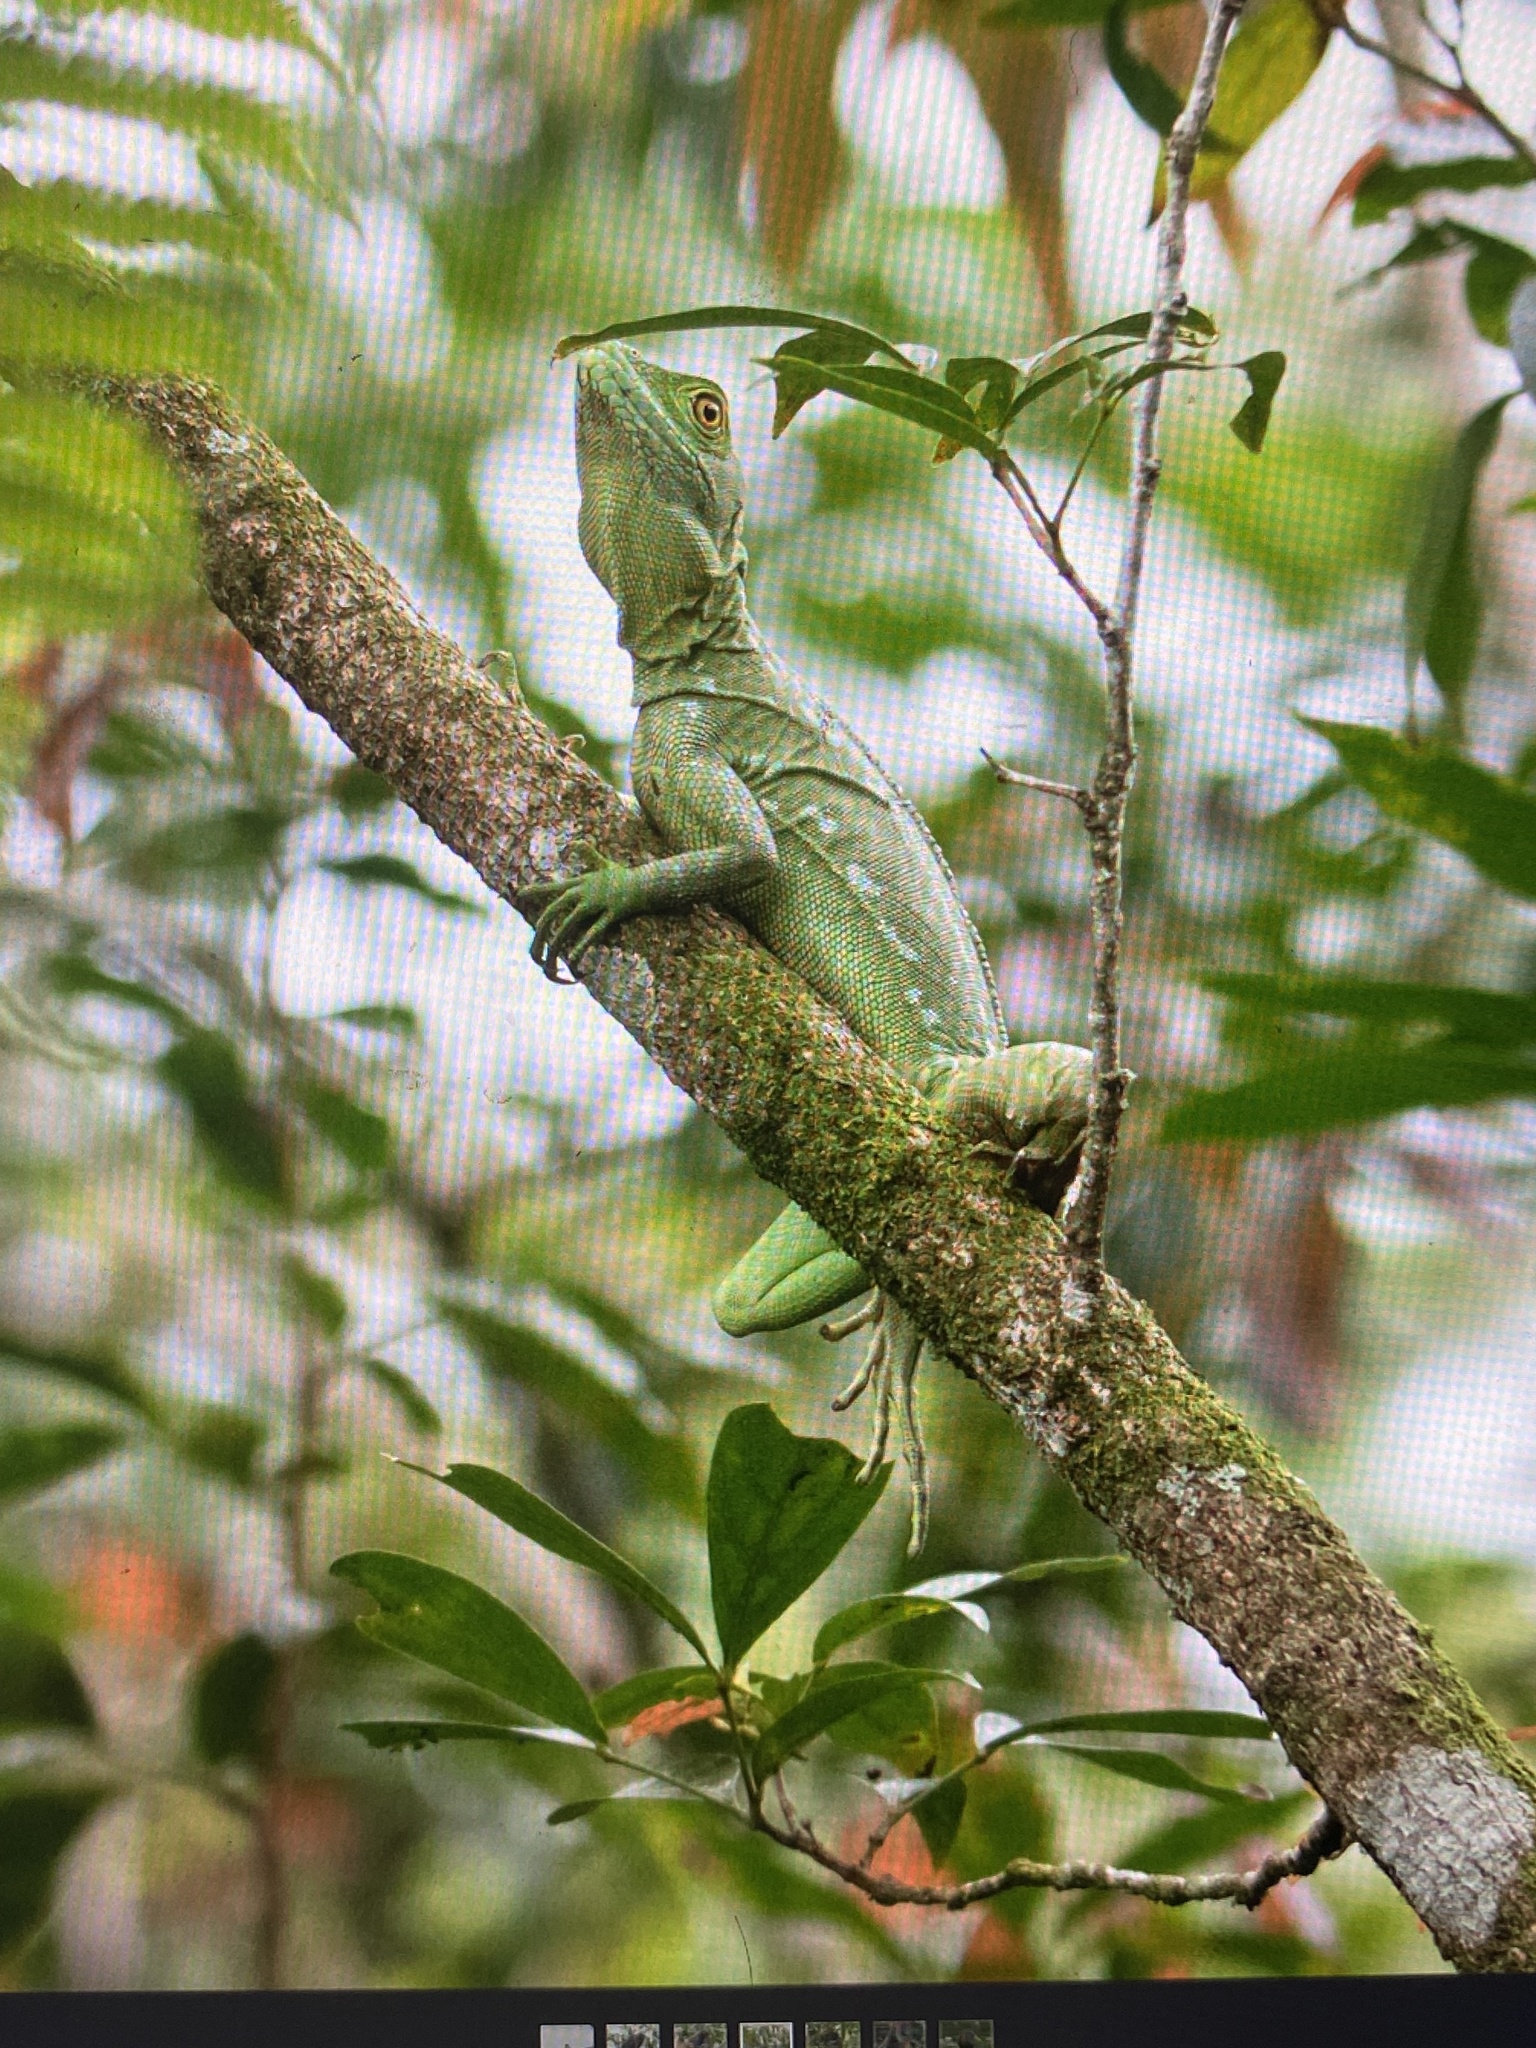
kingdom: Animalia
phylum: Chordata
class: Squamata
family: Corytophanidae
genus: Basiliscus
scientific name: Basiliscus plumifrons
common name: Green basilisk
